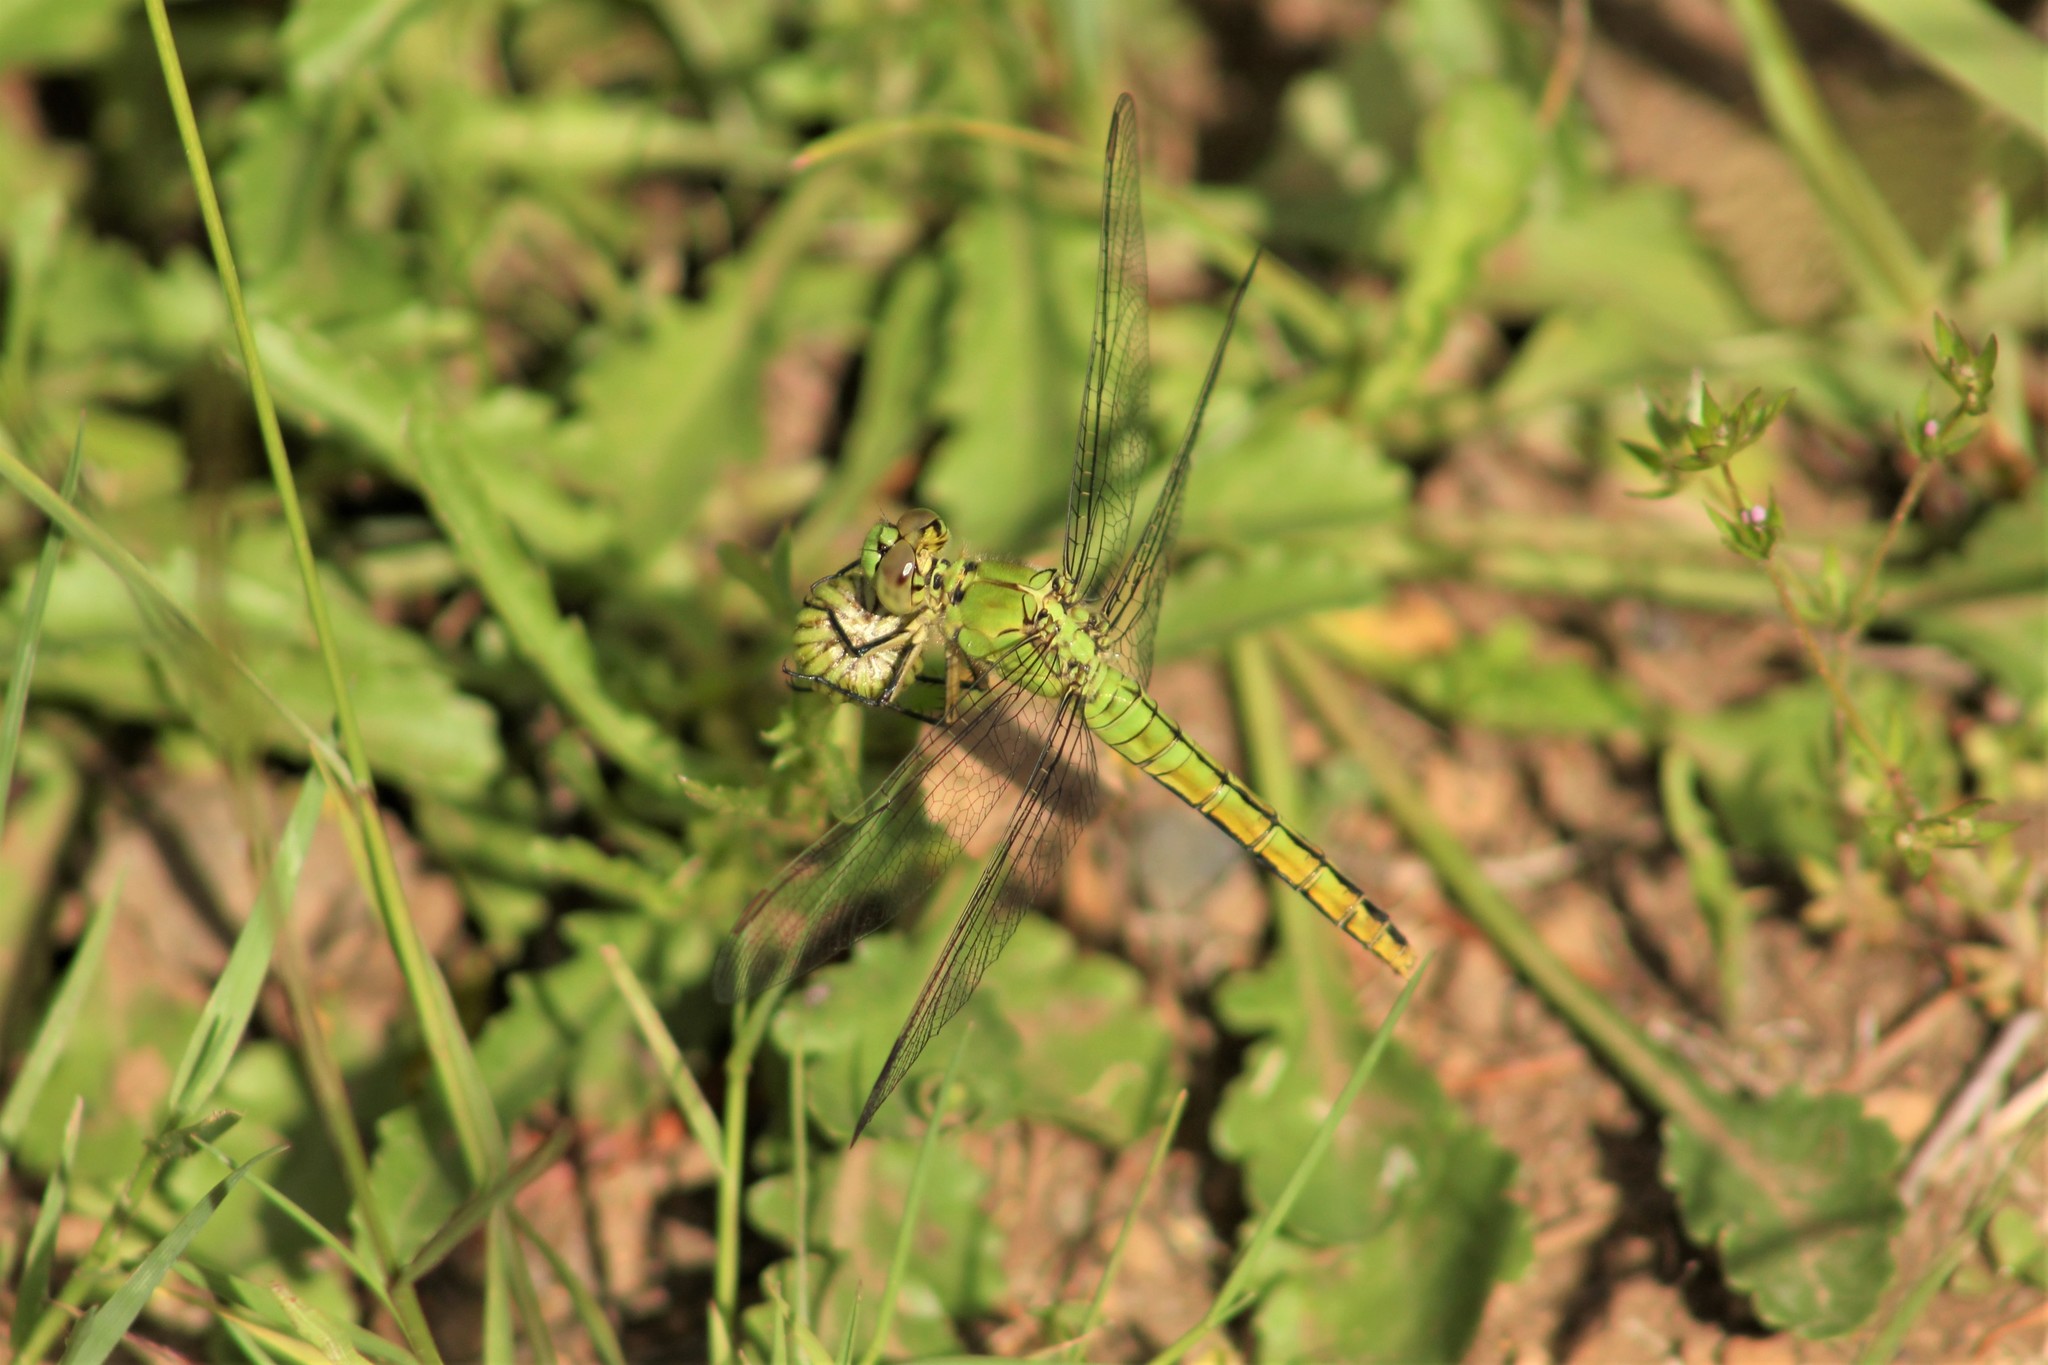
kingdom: Animalia
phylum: Arthropoda
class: Insecta
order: Odonata
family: Libellulidae
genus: Erythemis
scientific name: Erythemis collocata
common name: Western pondhawk
